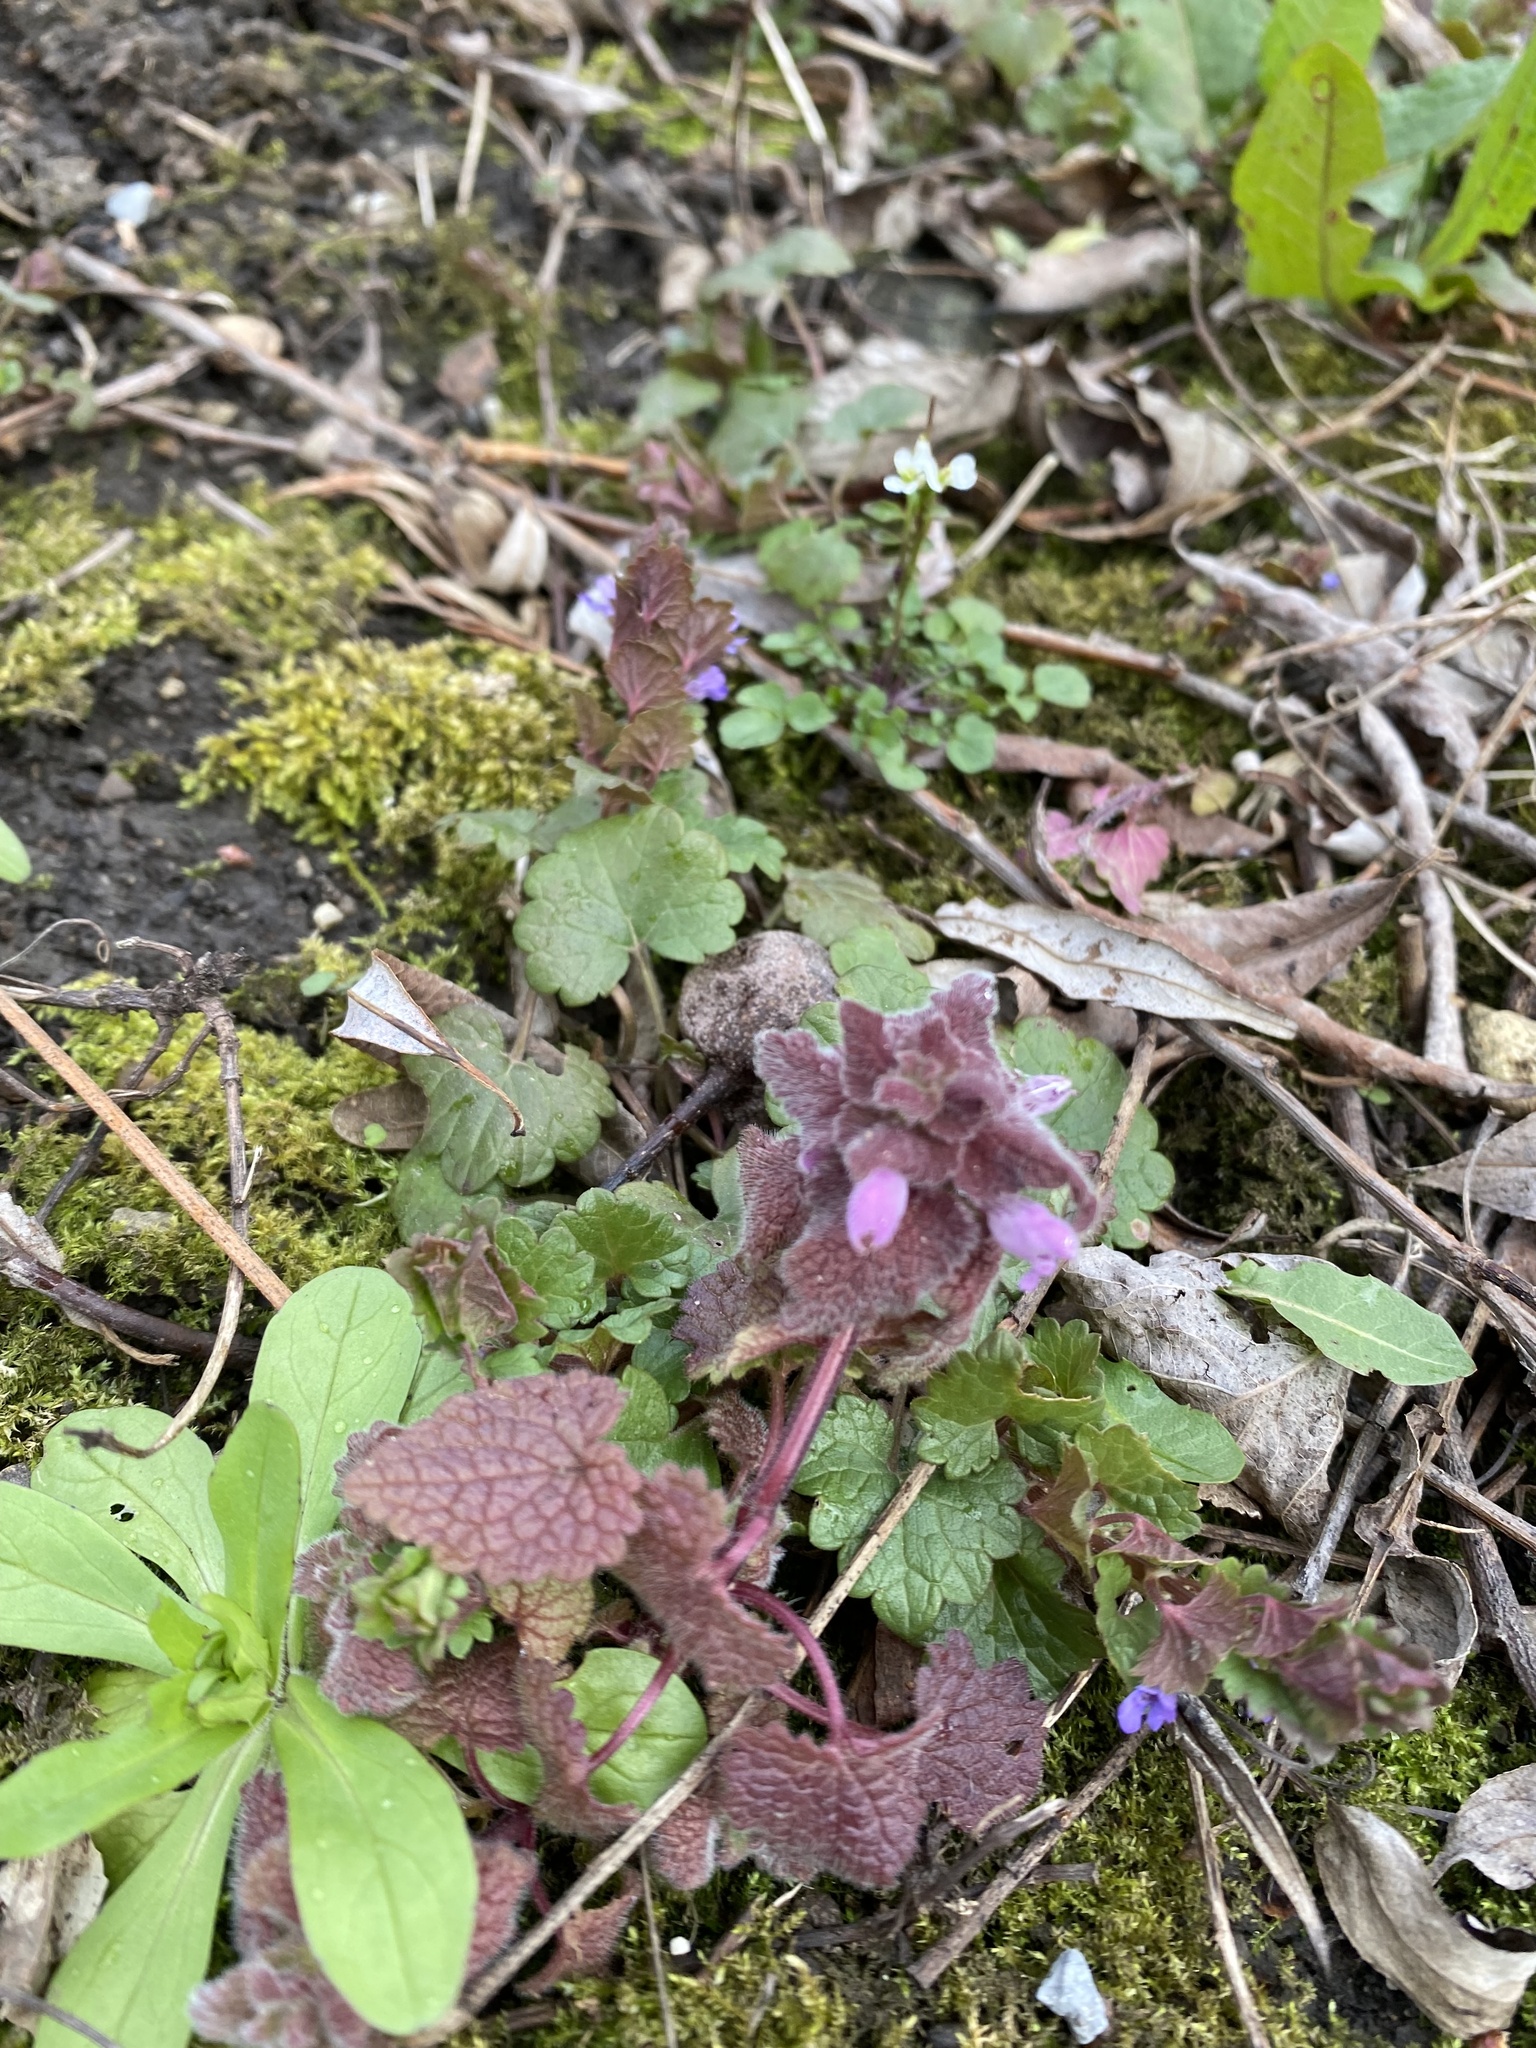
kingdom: Plantae
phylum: Tracheophyta
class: Magnoliopsida
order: Lamiales
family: Lamiaceae
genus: Lamium
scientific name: Lamium purpureum
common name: Red dead-nettle
